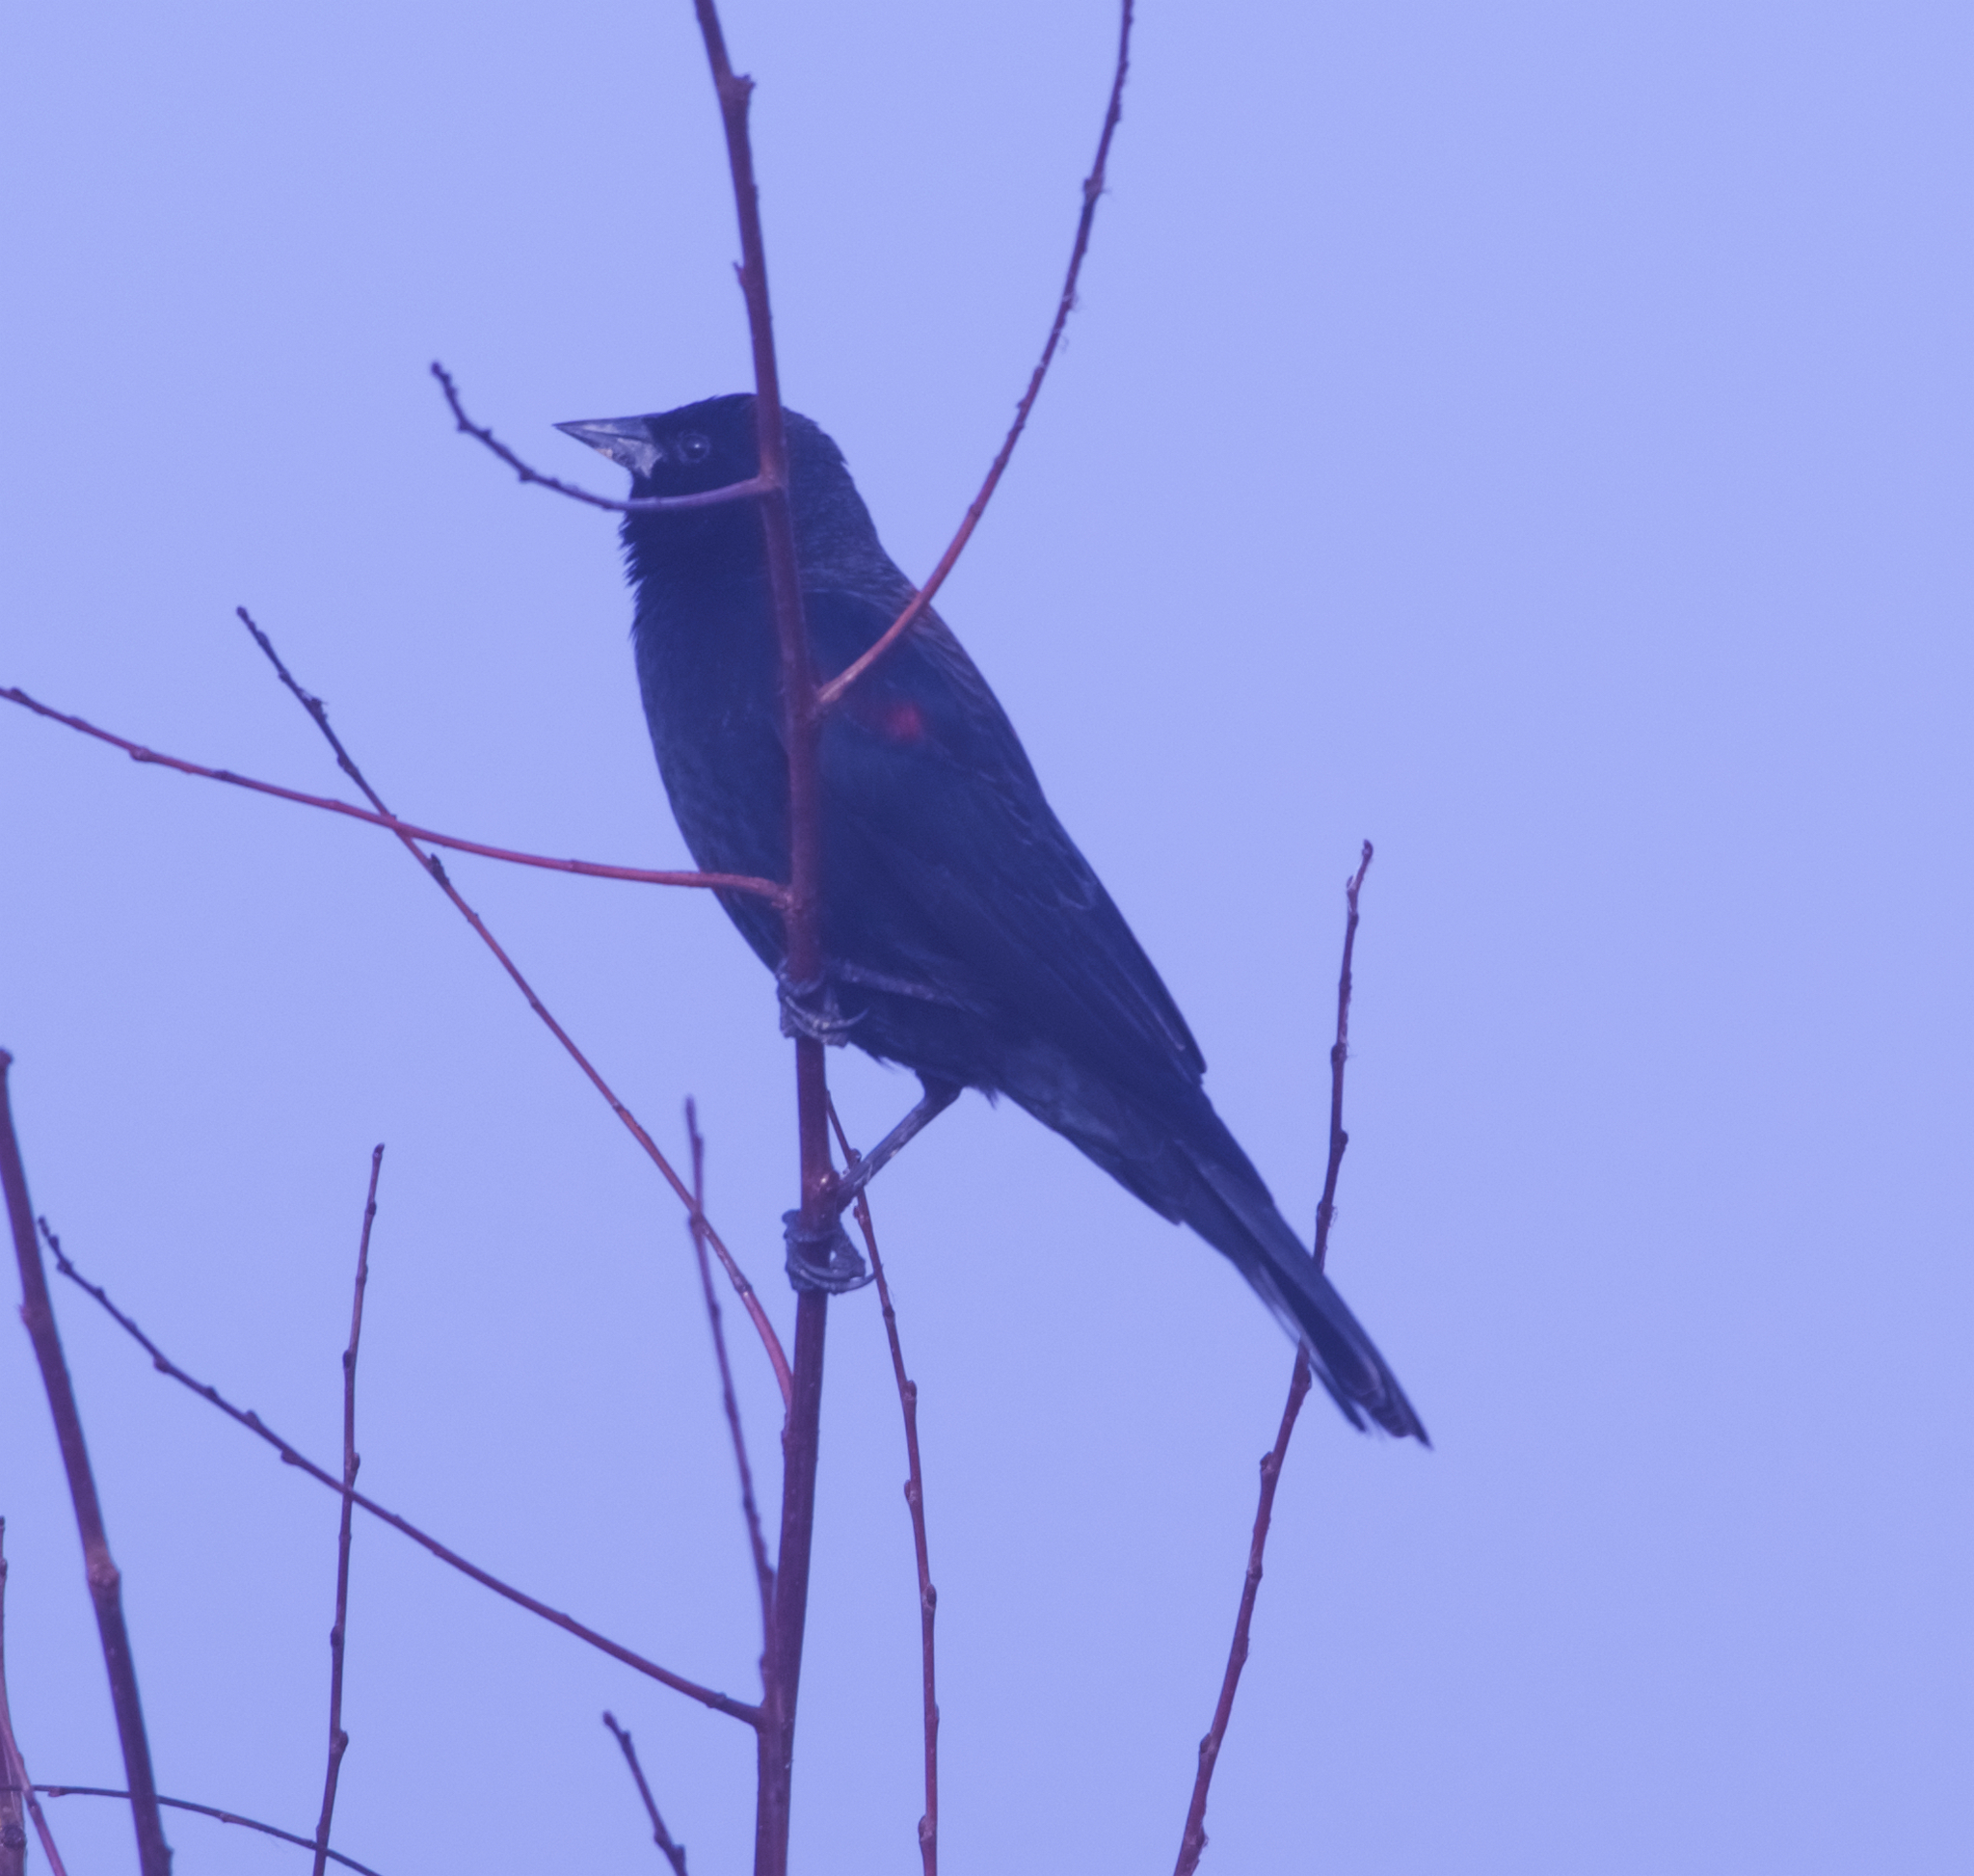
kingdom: Animalia
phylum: Chordata
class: Aves
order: Passeriformes
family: Icteridae
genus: Agelaius
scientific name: Agelaius phoeniceus
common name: Red-winged blackbird
